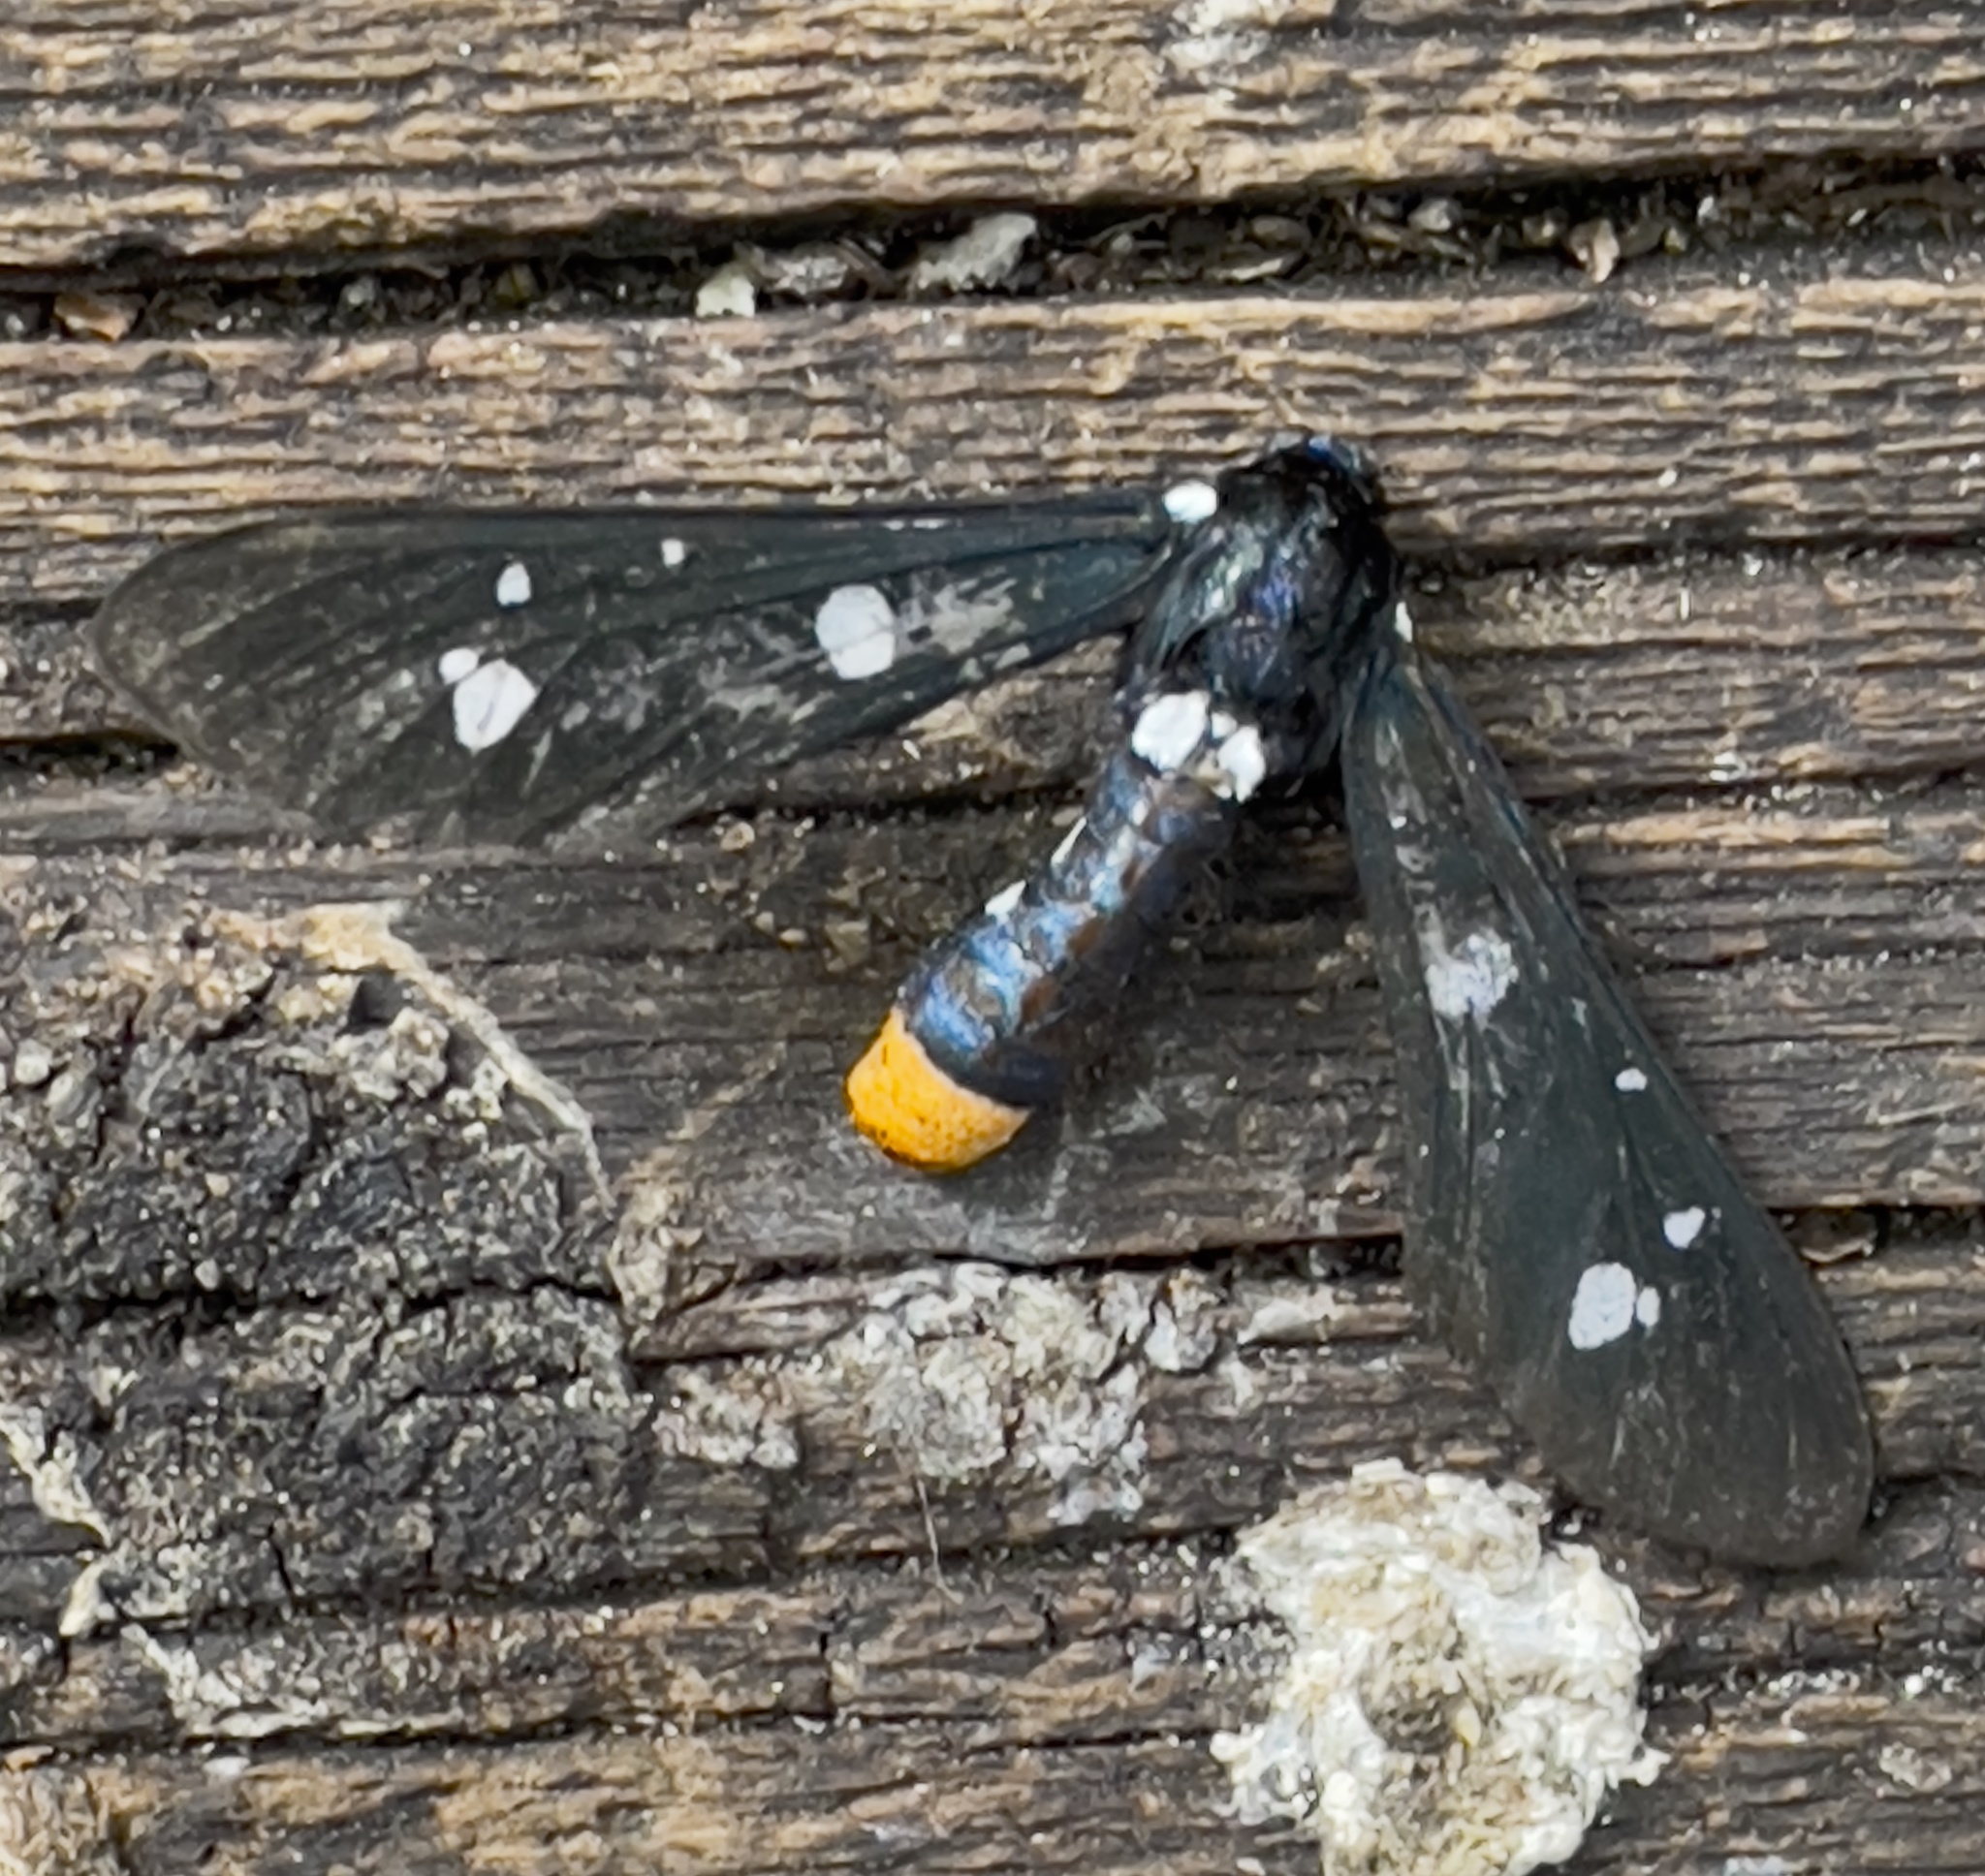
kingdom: Animalia
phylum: Arthropoda
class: Insecta
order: Lepidoptera
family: Erebidae
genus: Syntomeida
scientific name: Syntomeida epilais
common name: Polka-dot wasp moth
